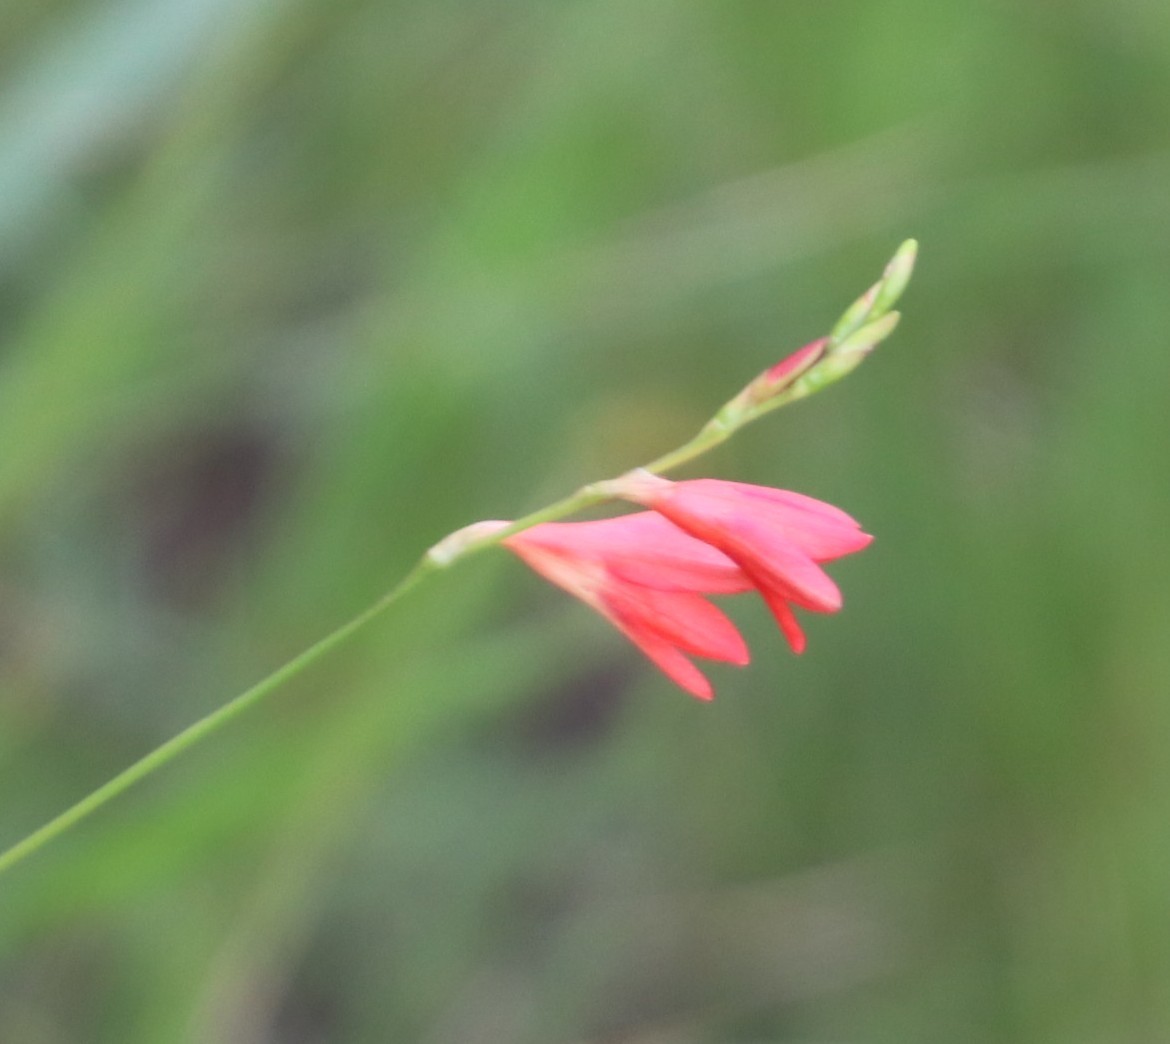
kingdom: Plantae
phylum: Tracheophyta
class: Liliopsida
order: Asparagales
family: Iridaceae
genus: Tritonia
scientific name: Tritonia disticha
